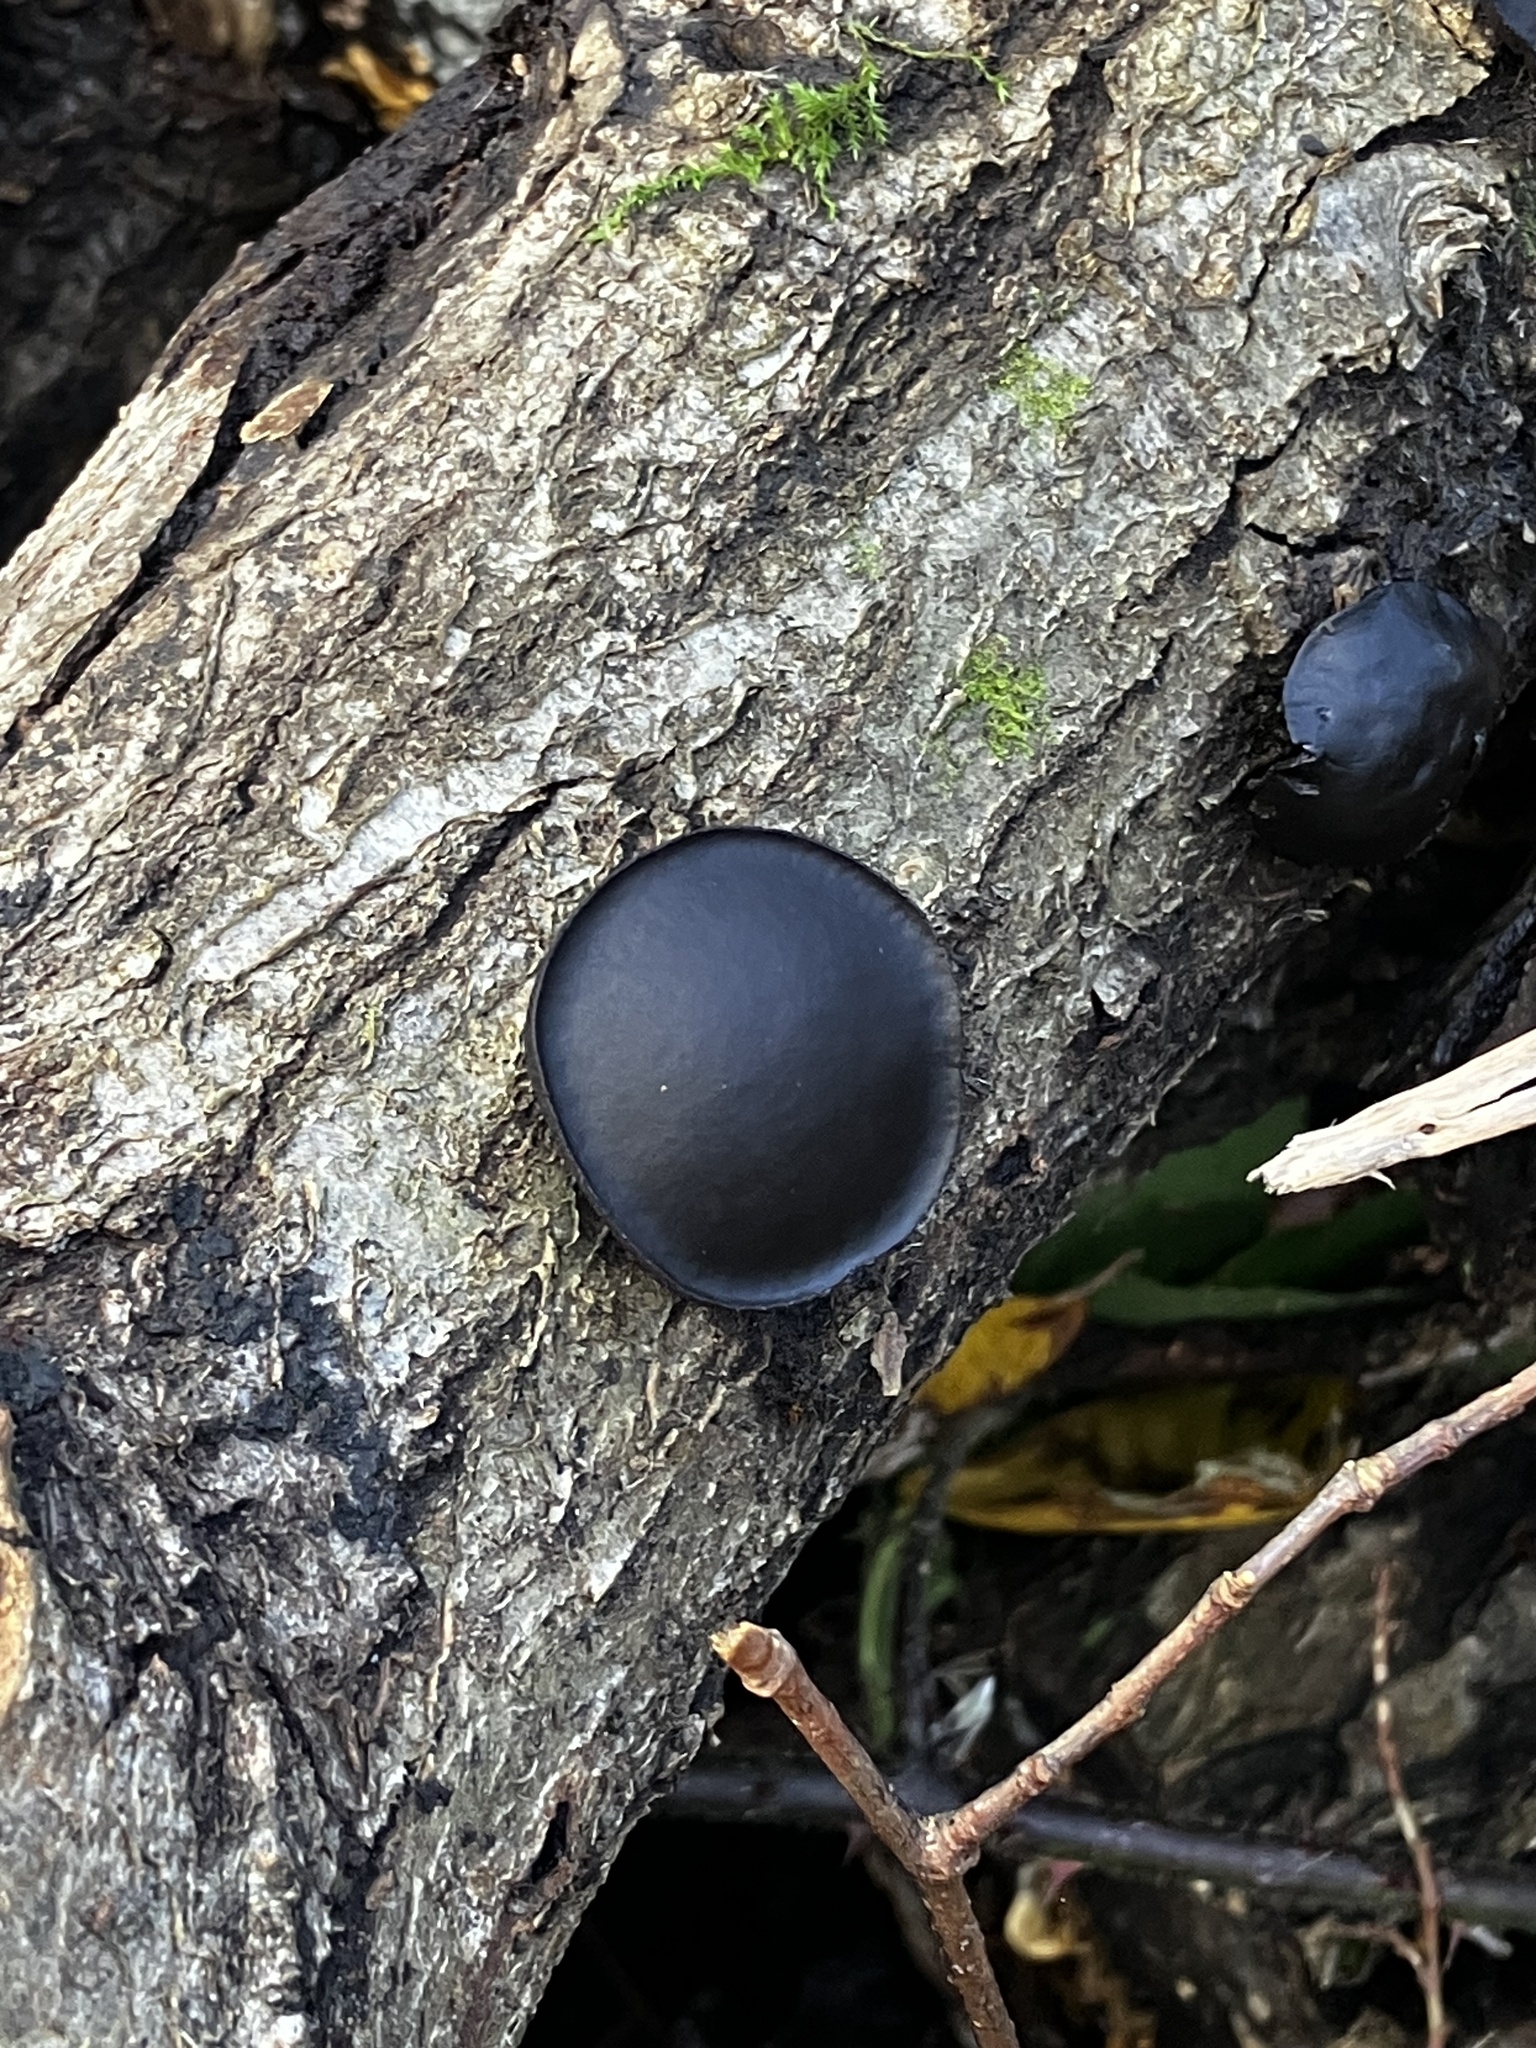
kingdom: Fungi
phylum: Ascomycota
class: Leotiomycetes
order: Phacidiales
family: Phacidiaceae
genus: Bulgaria
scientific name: Bulgaria inquinans
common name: Black bulgar
